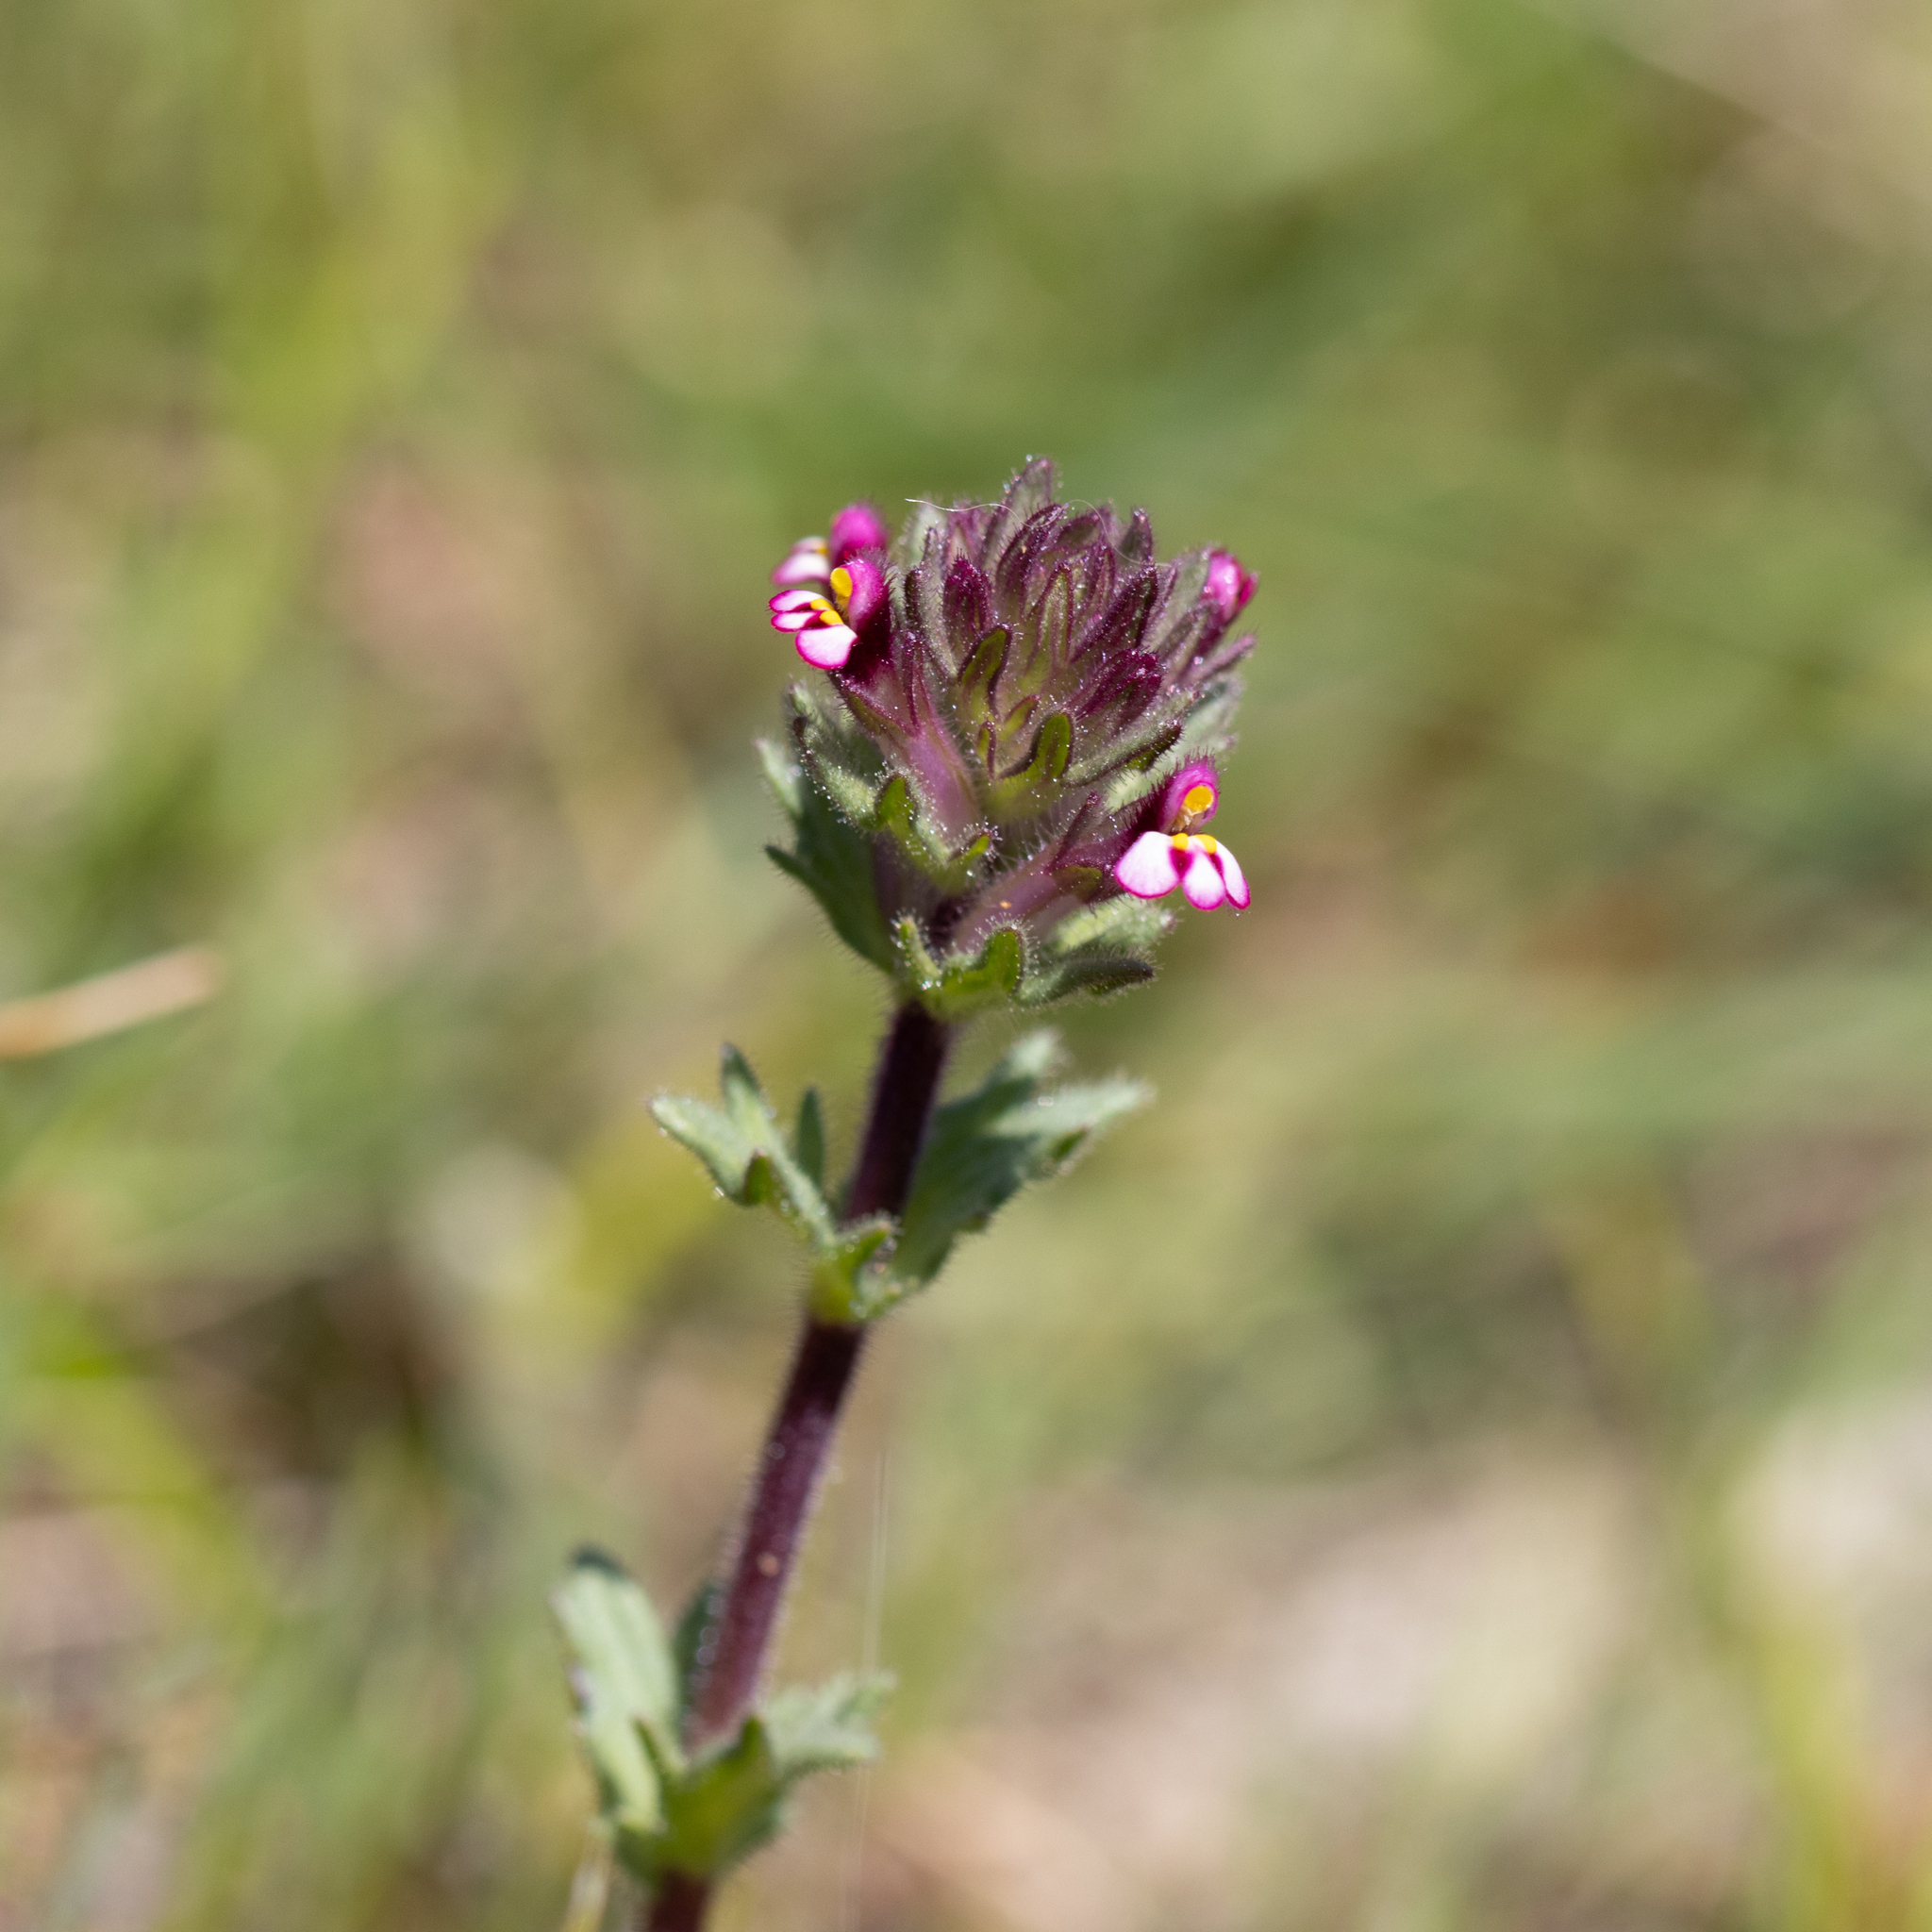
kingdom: Plantae
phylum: Tracheophyta
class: Magnoliopsida
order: Lamiales
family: Orobanchaceae
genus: Parentucellia
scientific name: Parentucellia latifolia
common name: Broadleaf glandweed
